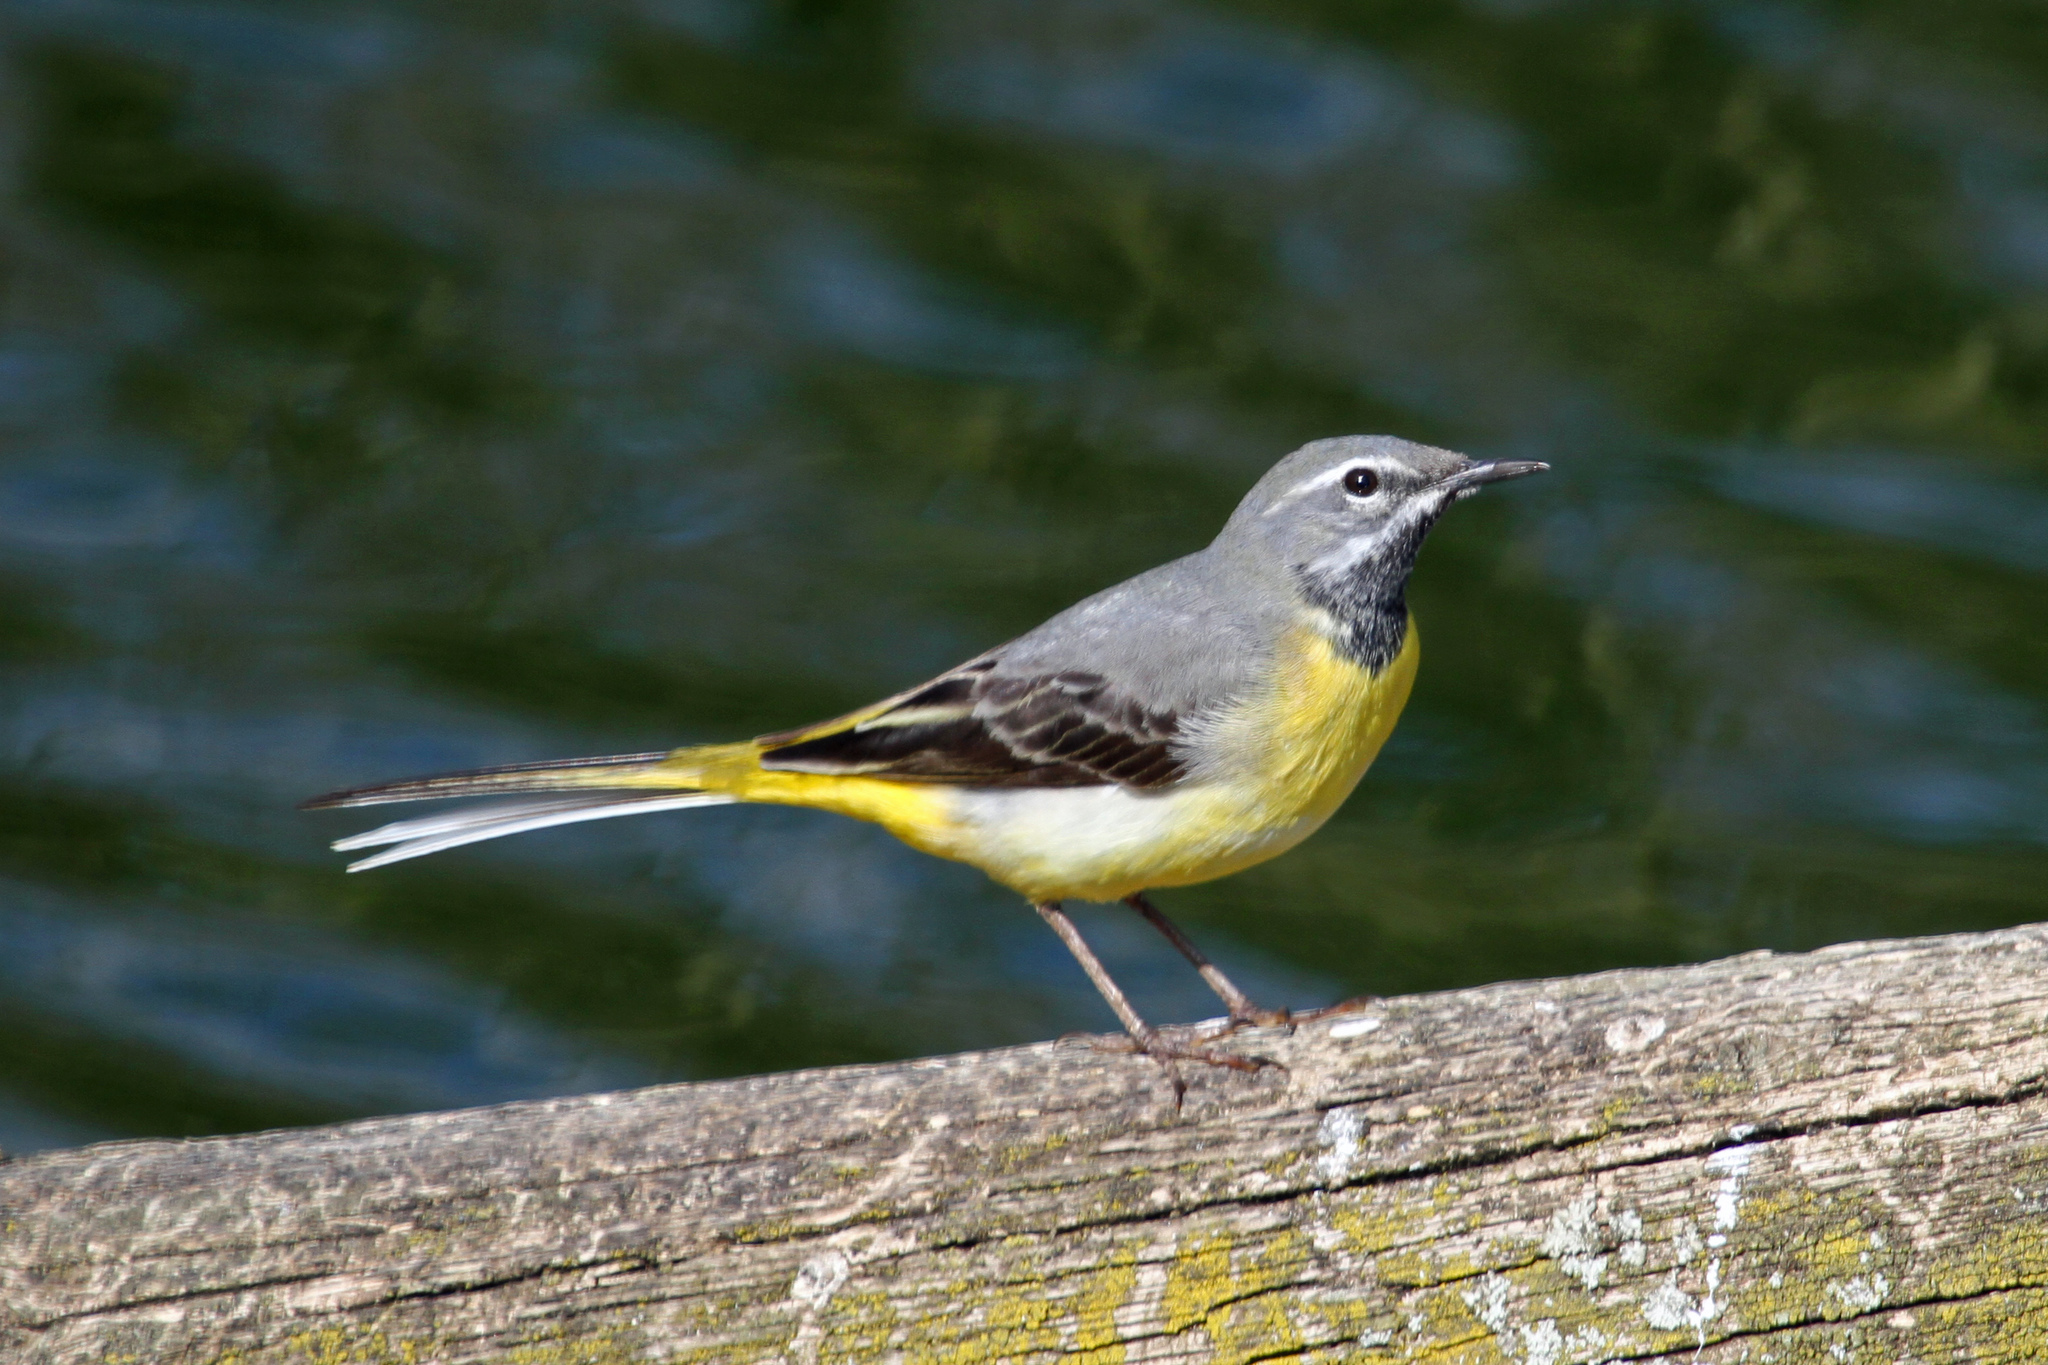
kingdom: Animalia
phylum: Chordata
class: Aves
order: Passeriformes
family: Motacillidae
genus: Motacilla
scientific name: Motacilla cinerea
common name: Grey wagtail
